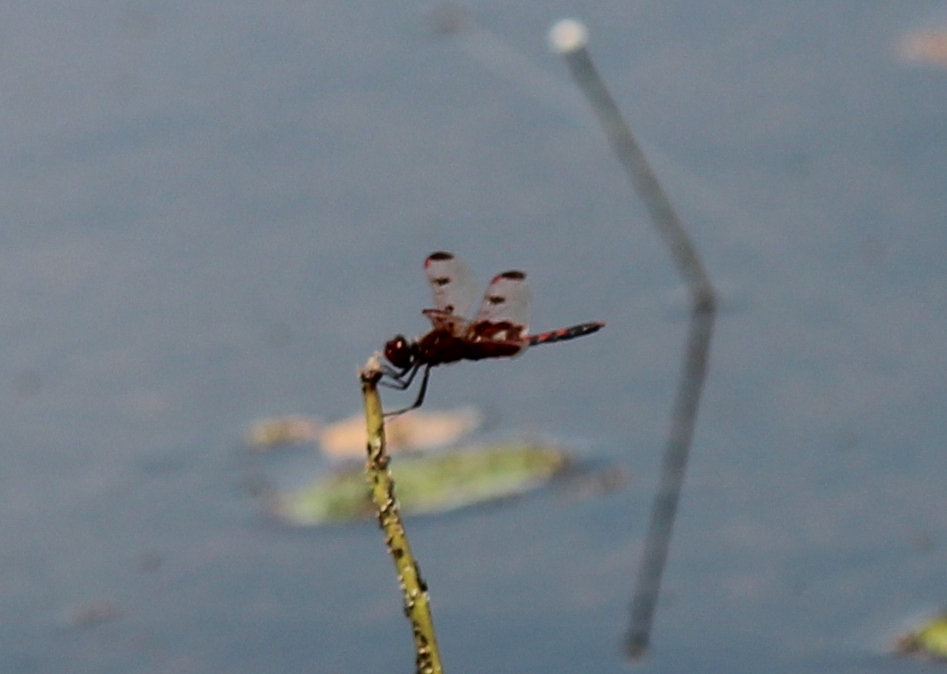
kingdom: Animalia
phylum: Arthropoda
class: Insecta
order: Odonata
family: Libellulidae
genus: Celithemis
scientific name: Celithemis elisa
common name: Calico pennant
